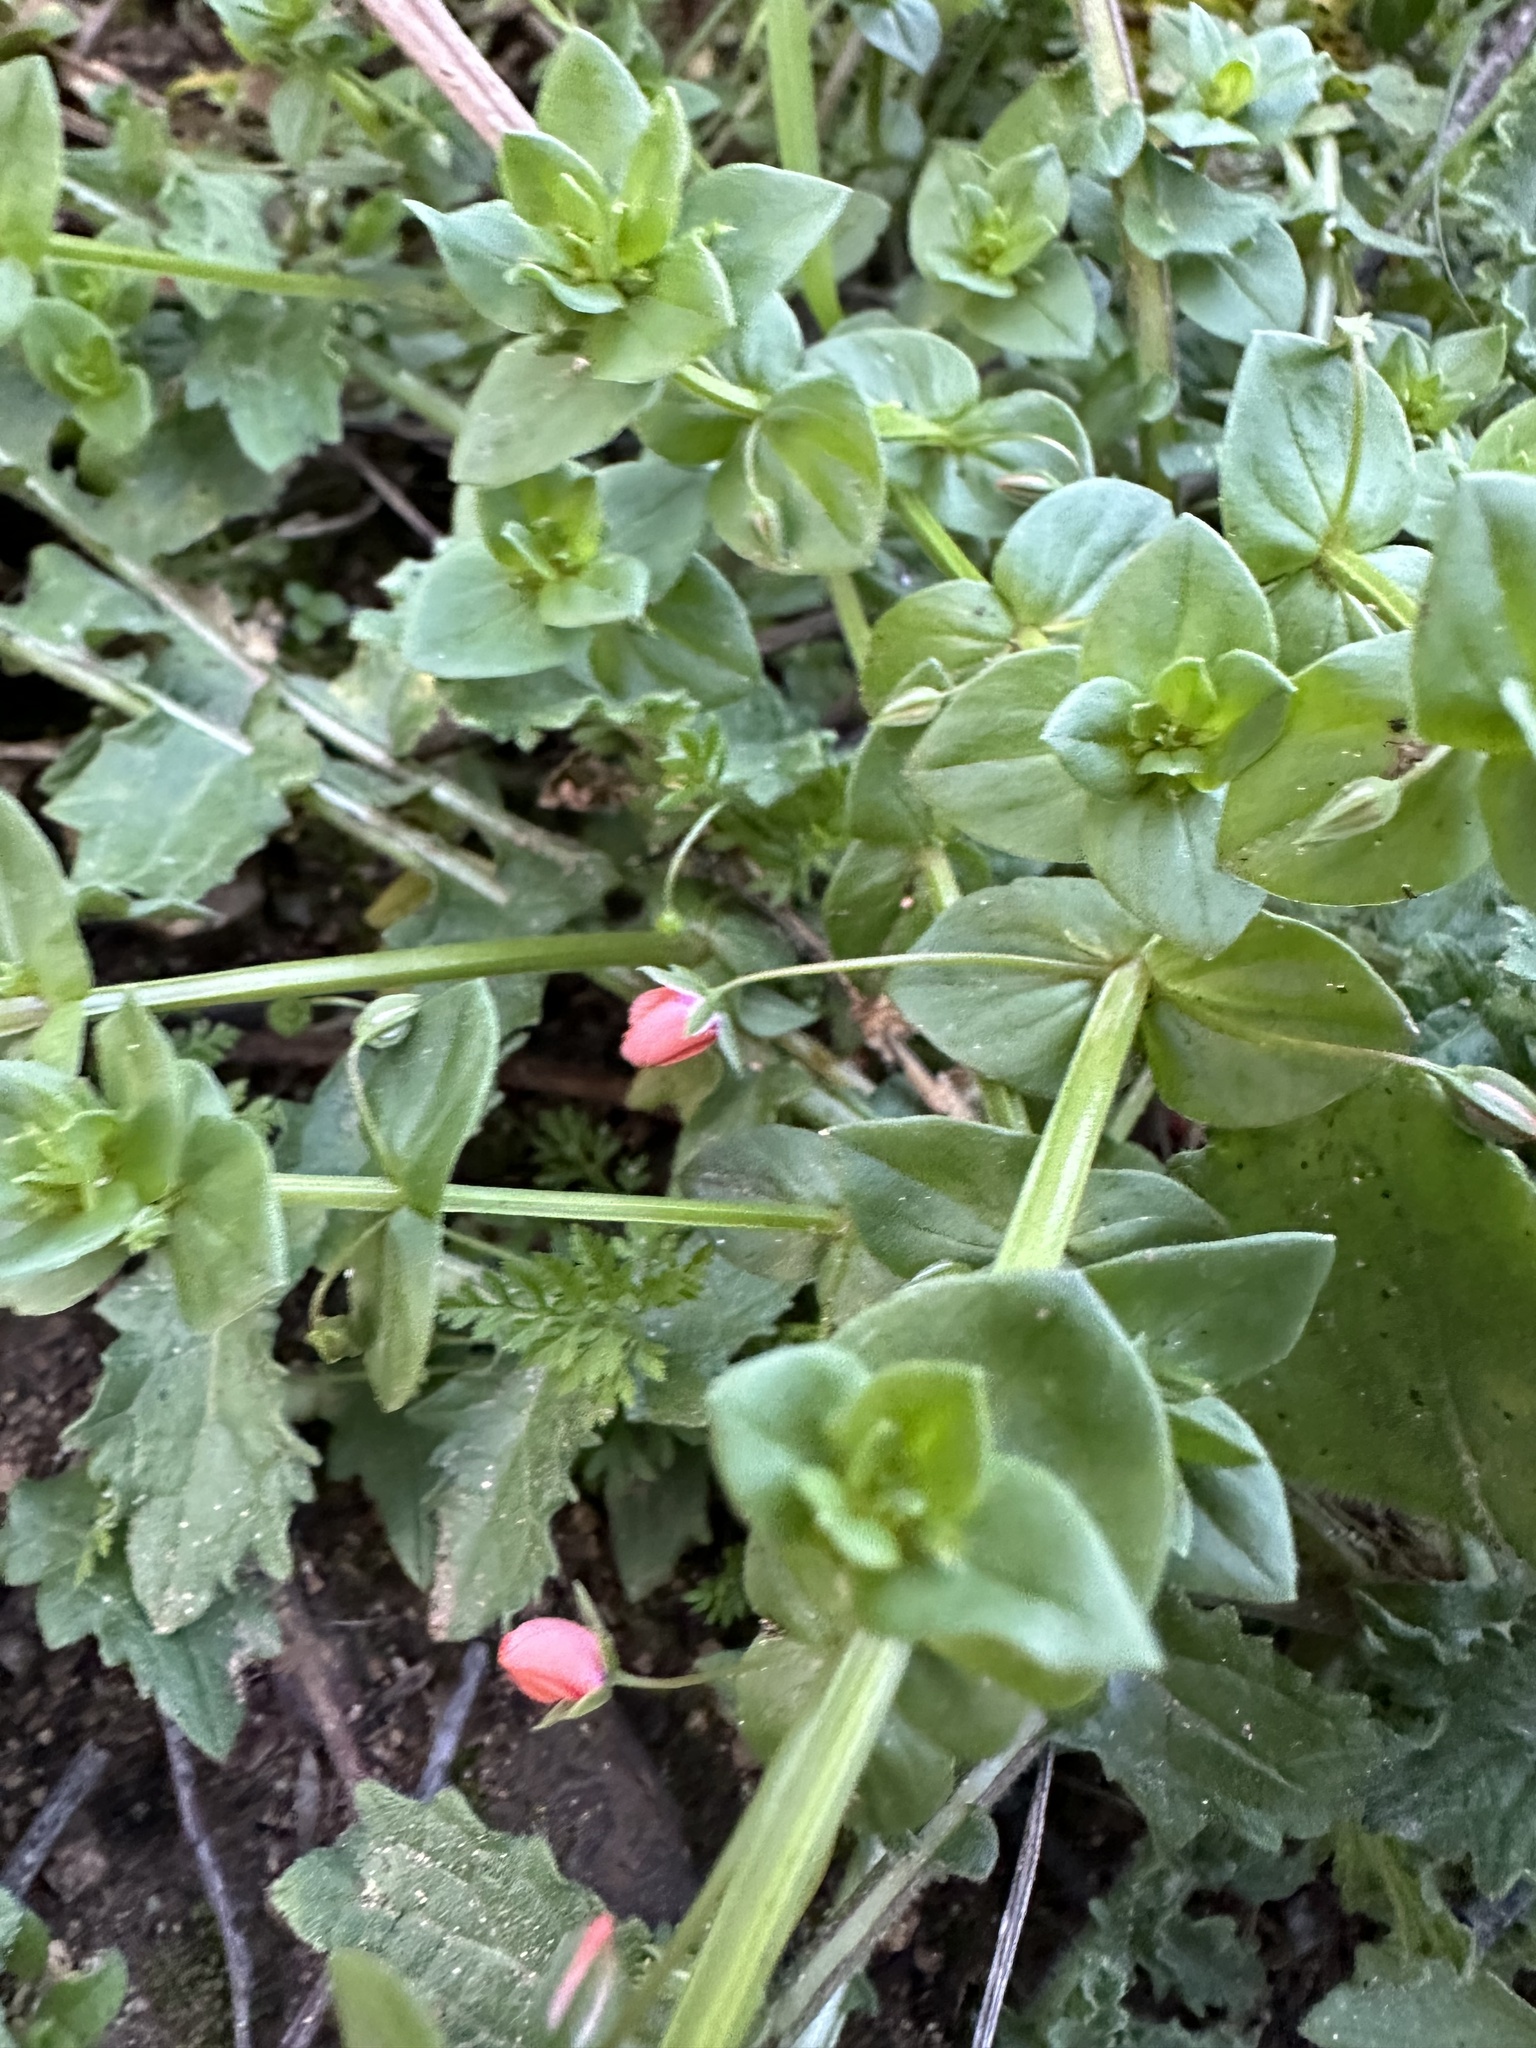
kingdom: Plantae
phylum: Tracheophyta
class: Magnoliopsida
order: Ericales
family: Primulaceae
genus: Lysimachia
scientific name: Lysimachia arvensis
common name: Scarlet pimpernel
